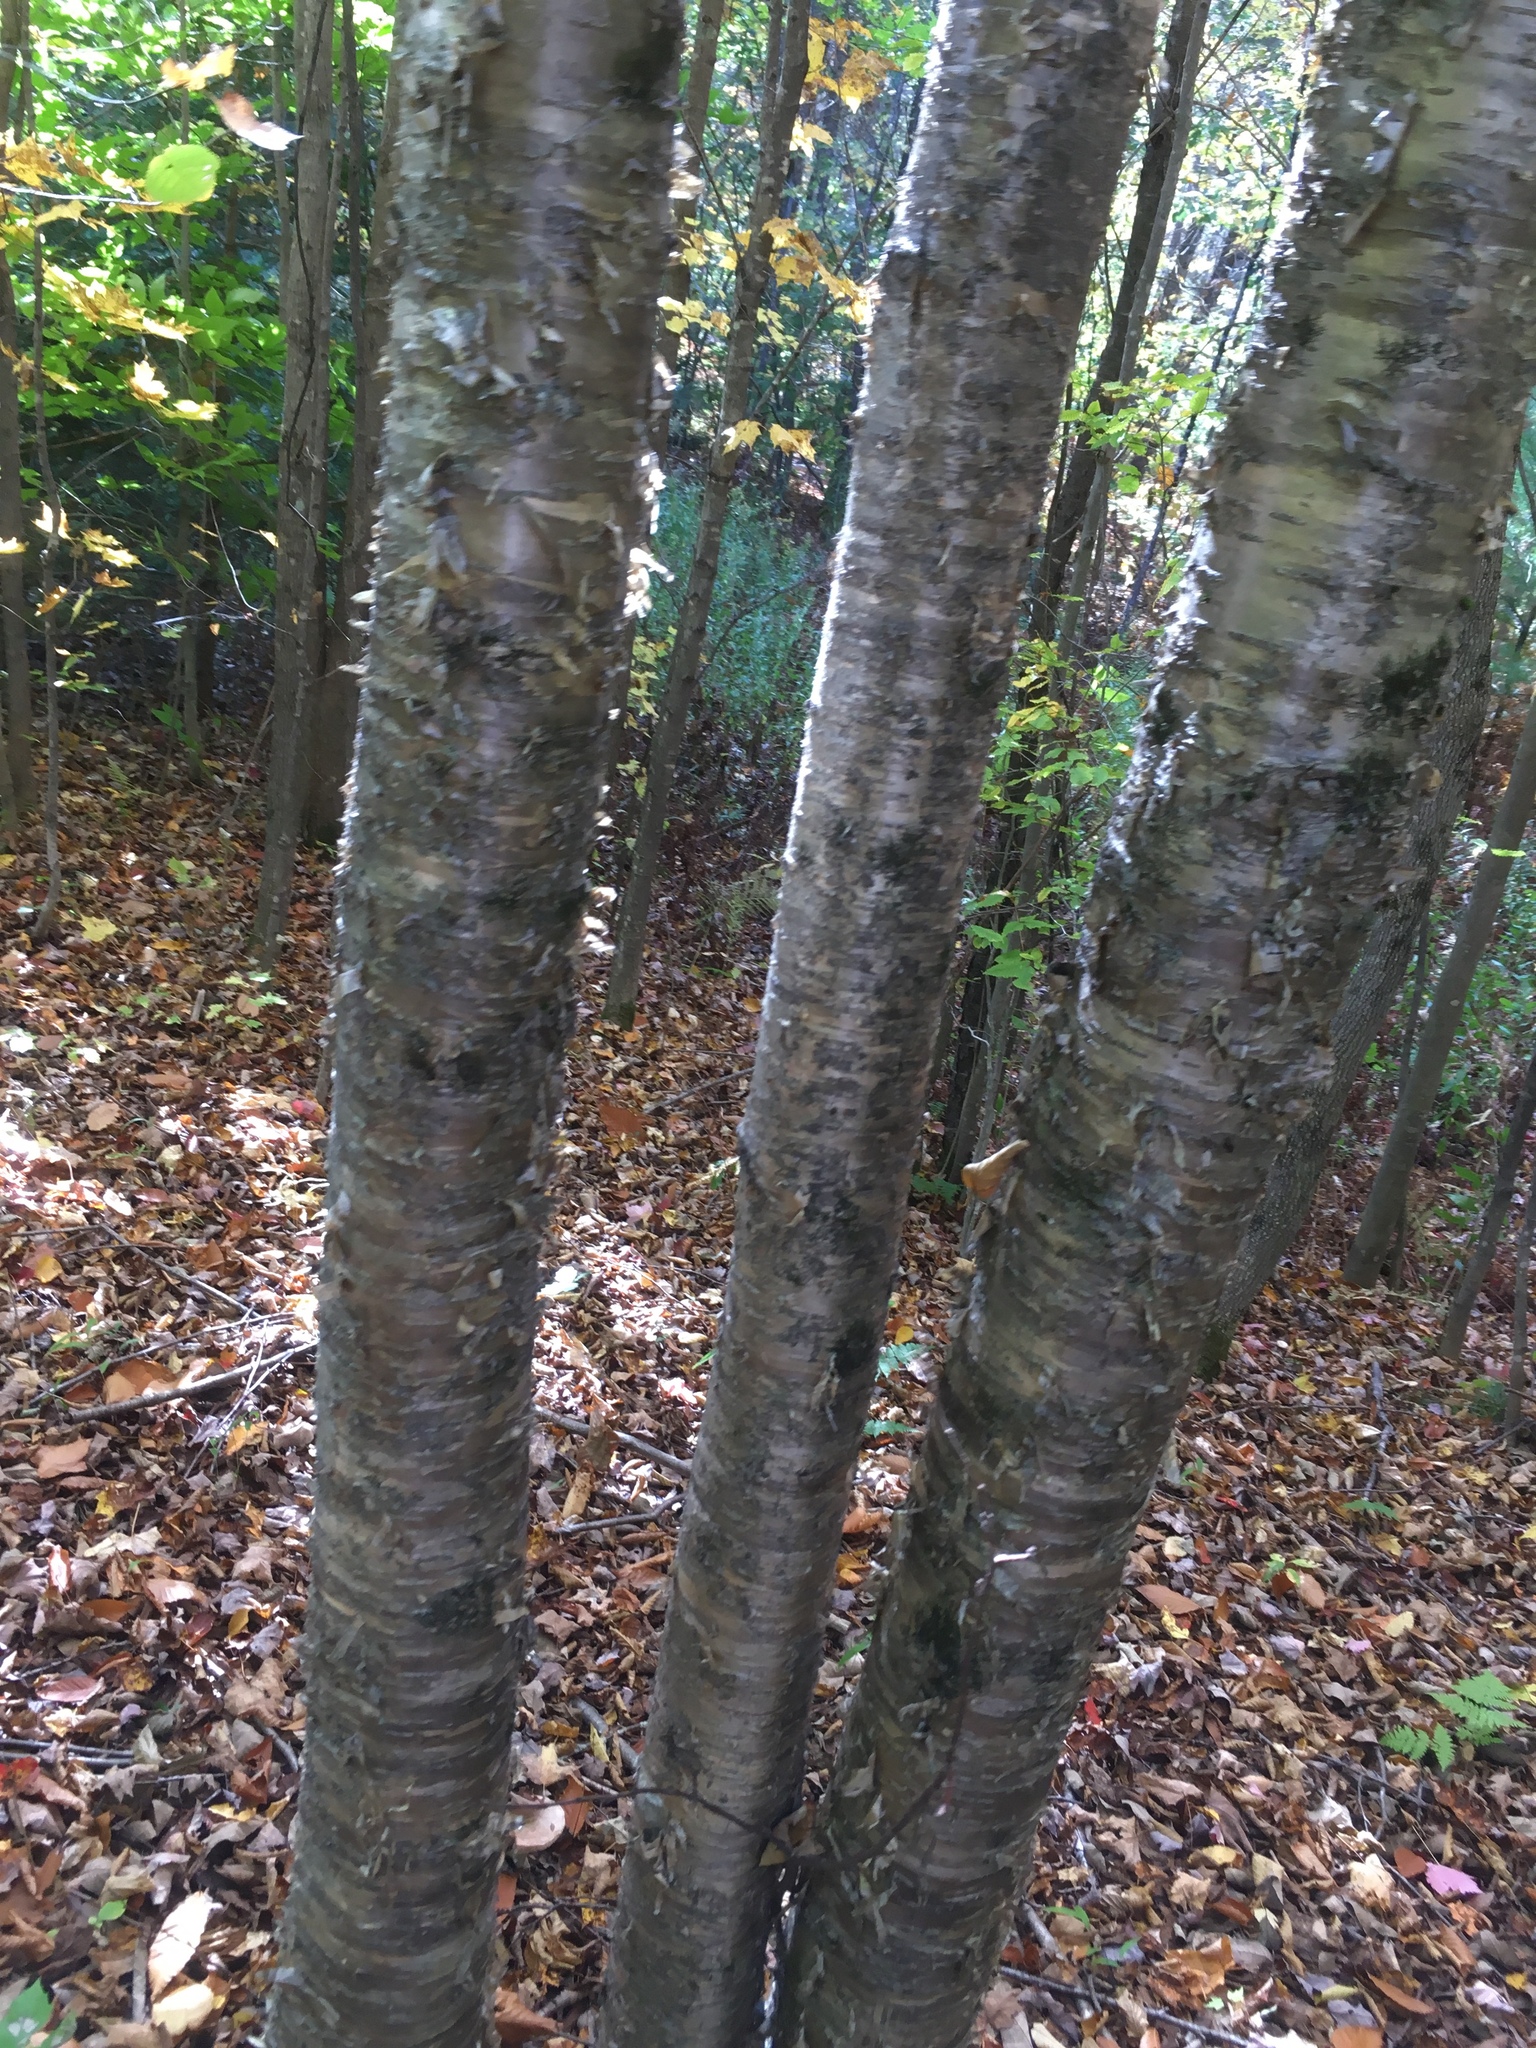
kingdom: Plantae
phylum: Tracheophyta
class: Magnoliopsida
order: Fagales
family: Betulaceae
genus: Betula
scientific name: Betula alleghaniensis
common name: Yellow birch
